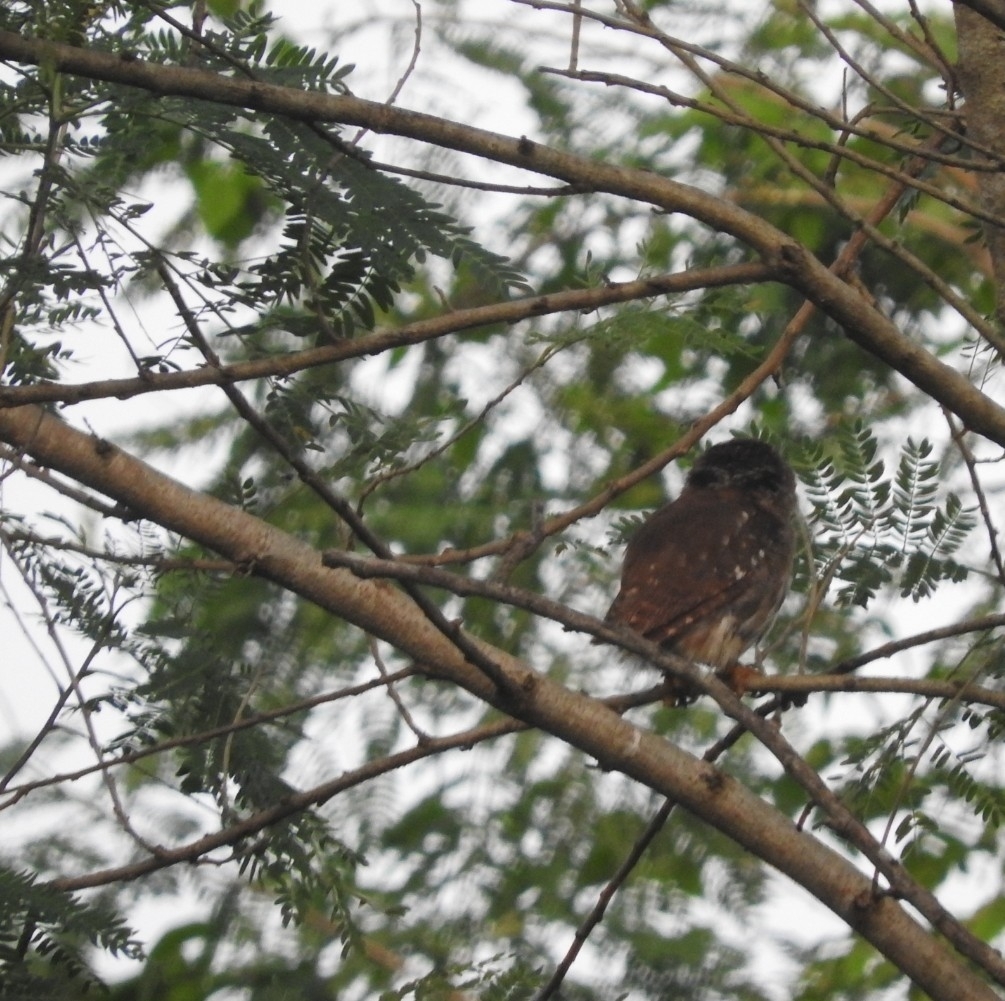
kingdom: Animalia
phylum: Chordata
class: Aves
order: Strigiformes
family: Strigidae
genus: Glaucidium
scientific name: Glaucidium brasilianum
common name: Ferruginous pygmy-owl
